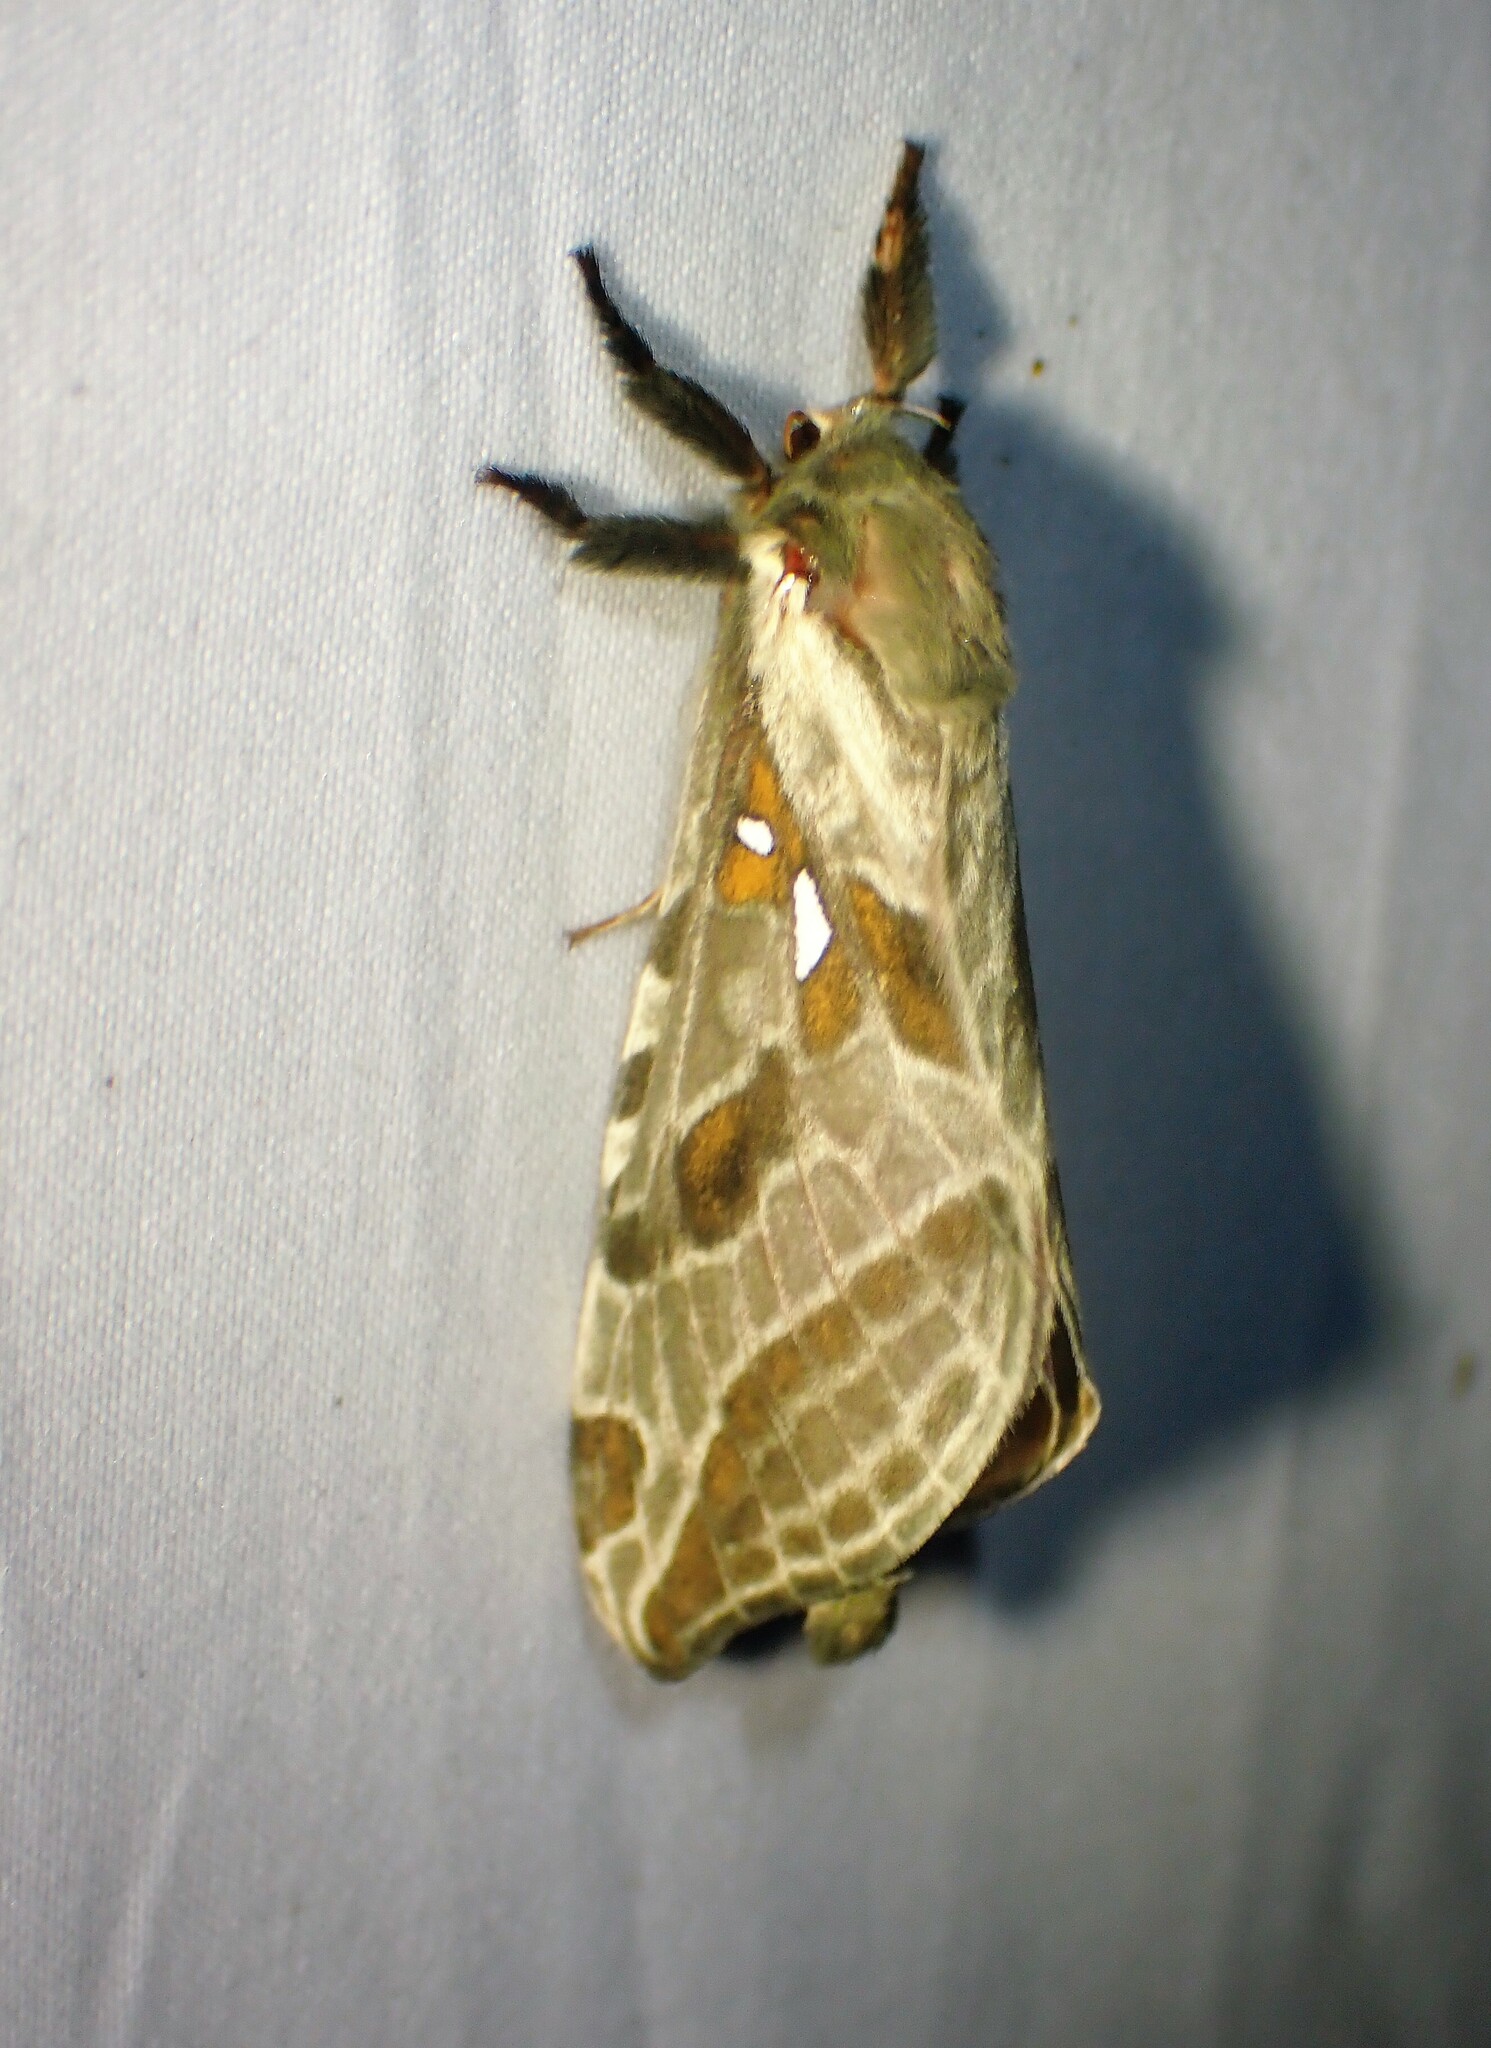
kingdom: Animalia
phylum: Arthropoda
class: Insecta
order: Lepidoptera
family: Hepialidae
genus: Sthenopis
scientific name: Sthenopis argenteomaculatus
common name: Silver-spotted ghost moth
